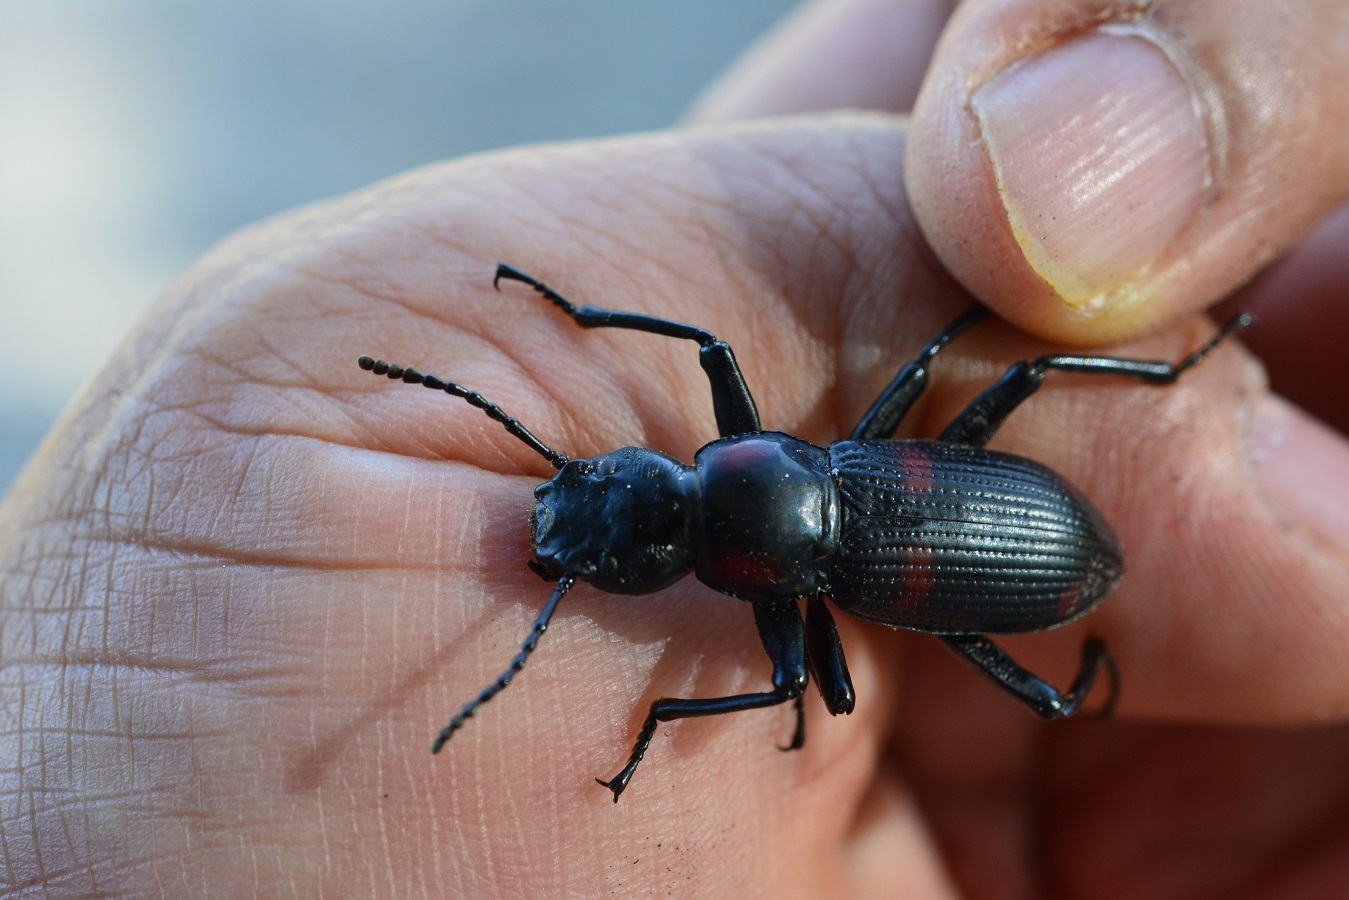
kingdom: Animalia
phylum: Arthropoda
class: Insecta
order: Coleoptera
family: Tenebrionidae
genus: Zophobas
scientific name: Zophobas klingelhoefferi
